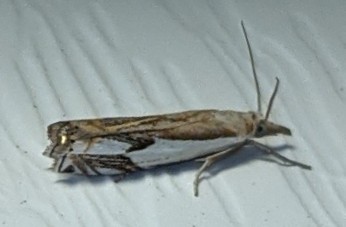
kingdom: Animalia
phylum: Arthropoda
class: Insecta
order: Lepidoptera
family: Crambidae
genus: Crambus
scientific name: Crambus agitatellus
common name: Double-banded grass-veneer
